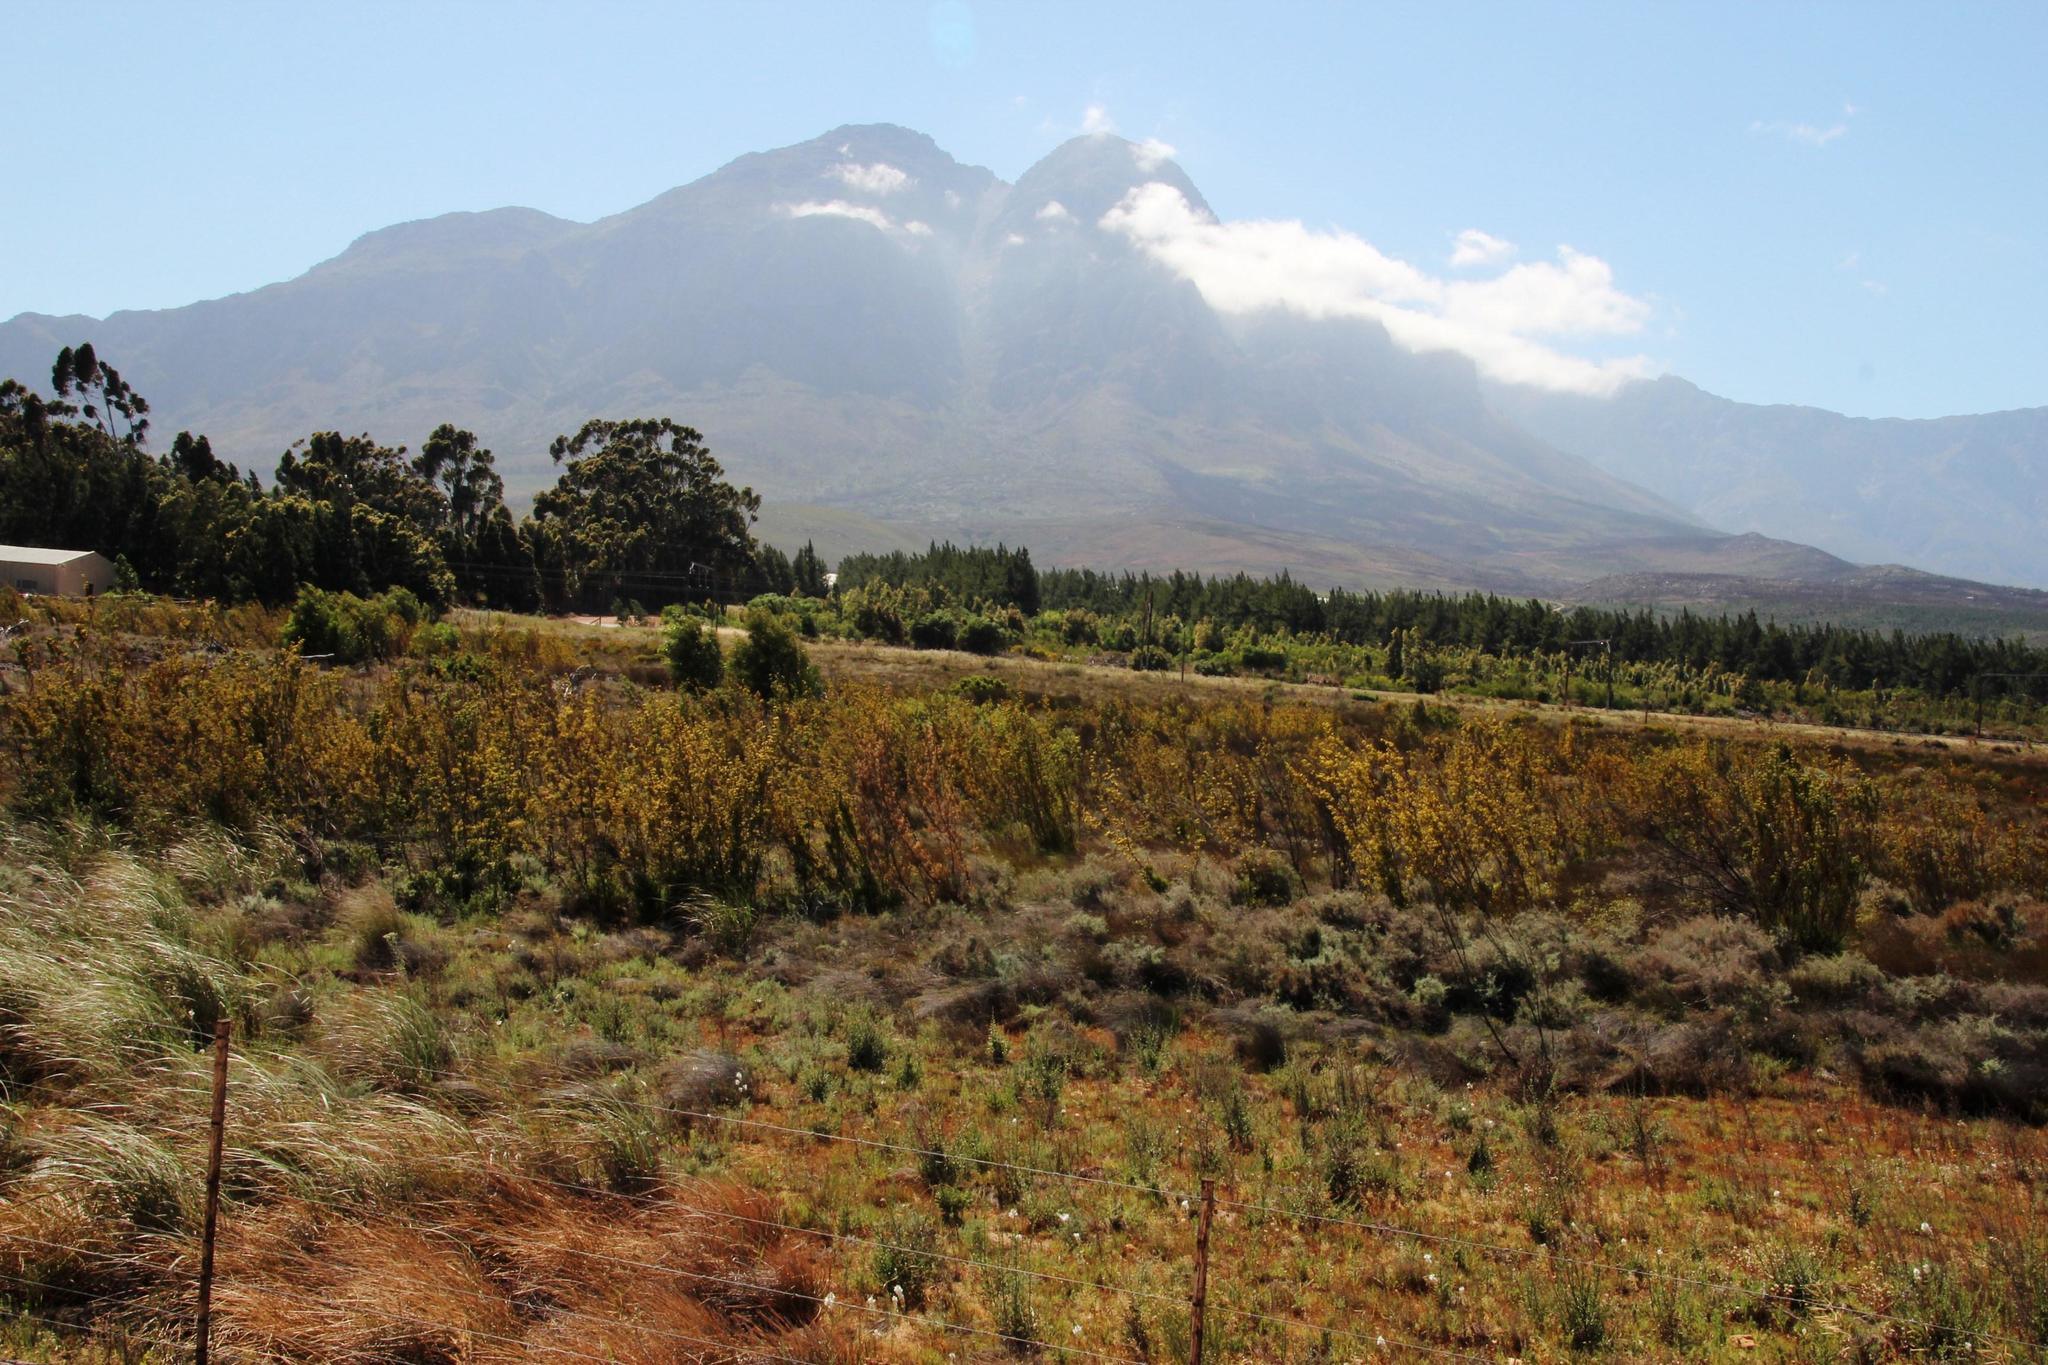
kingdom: Plantae
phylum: Tracheophyta
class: Magnoliopsida
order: Proteales
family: Proteaceae
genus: Leucadendron
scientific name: Leucadendron corymbosum
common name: Swartveld conebush
